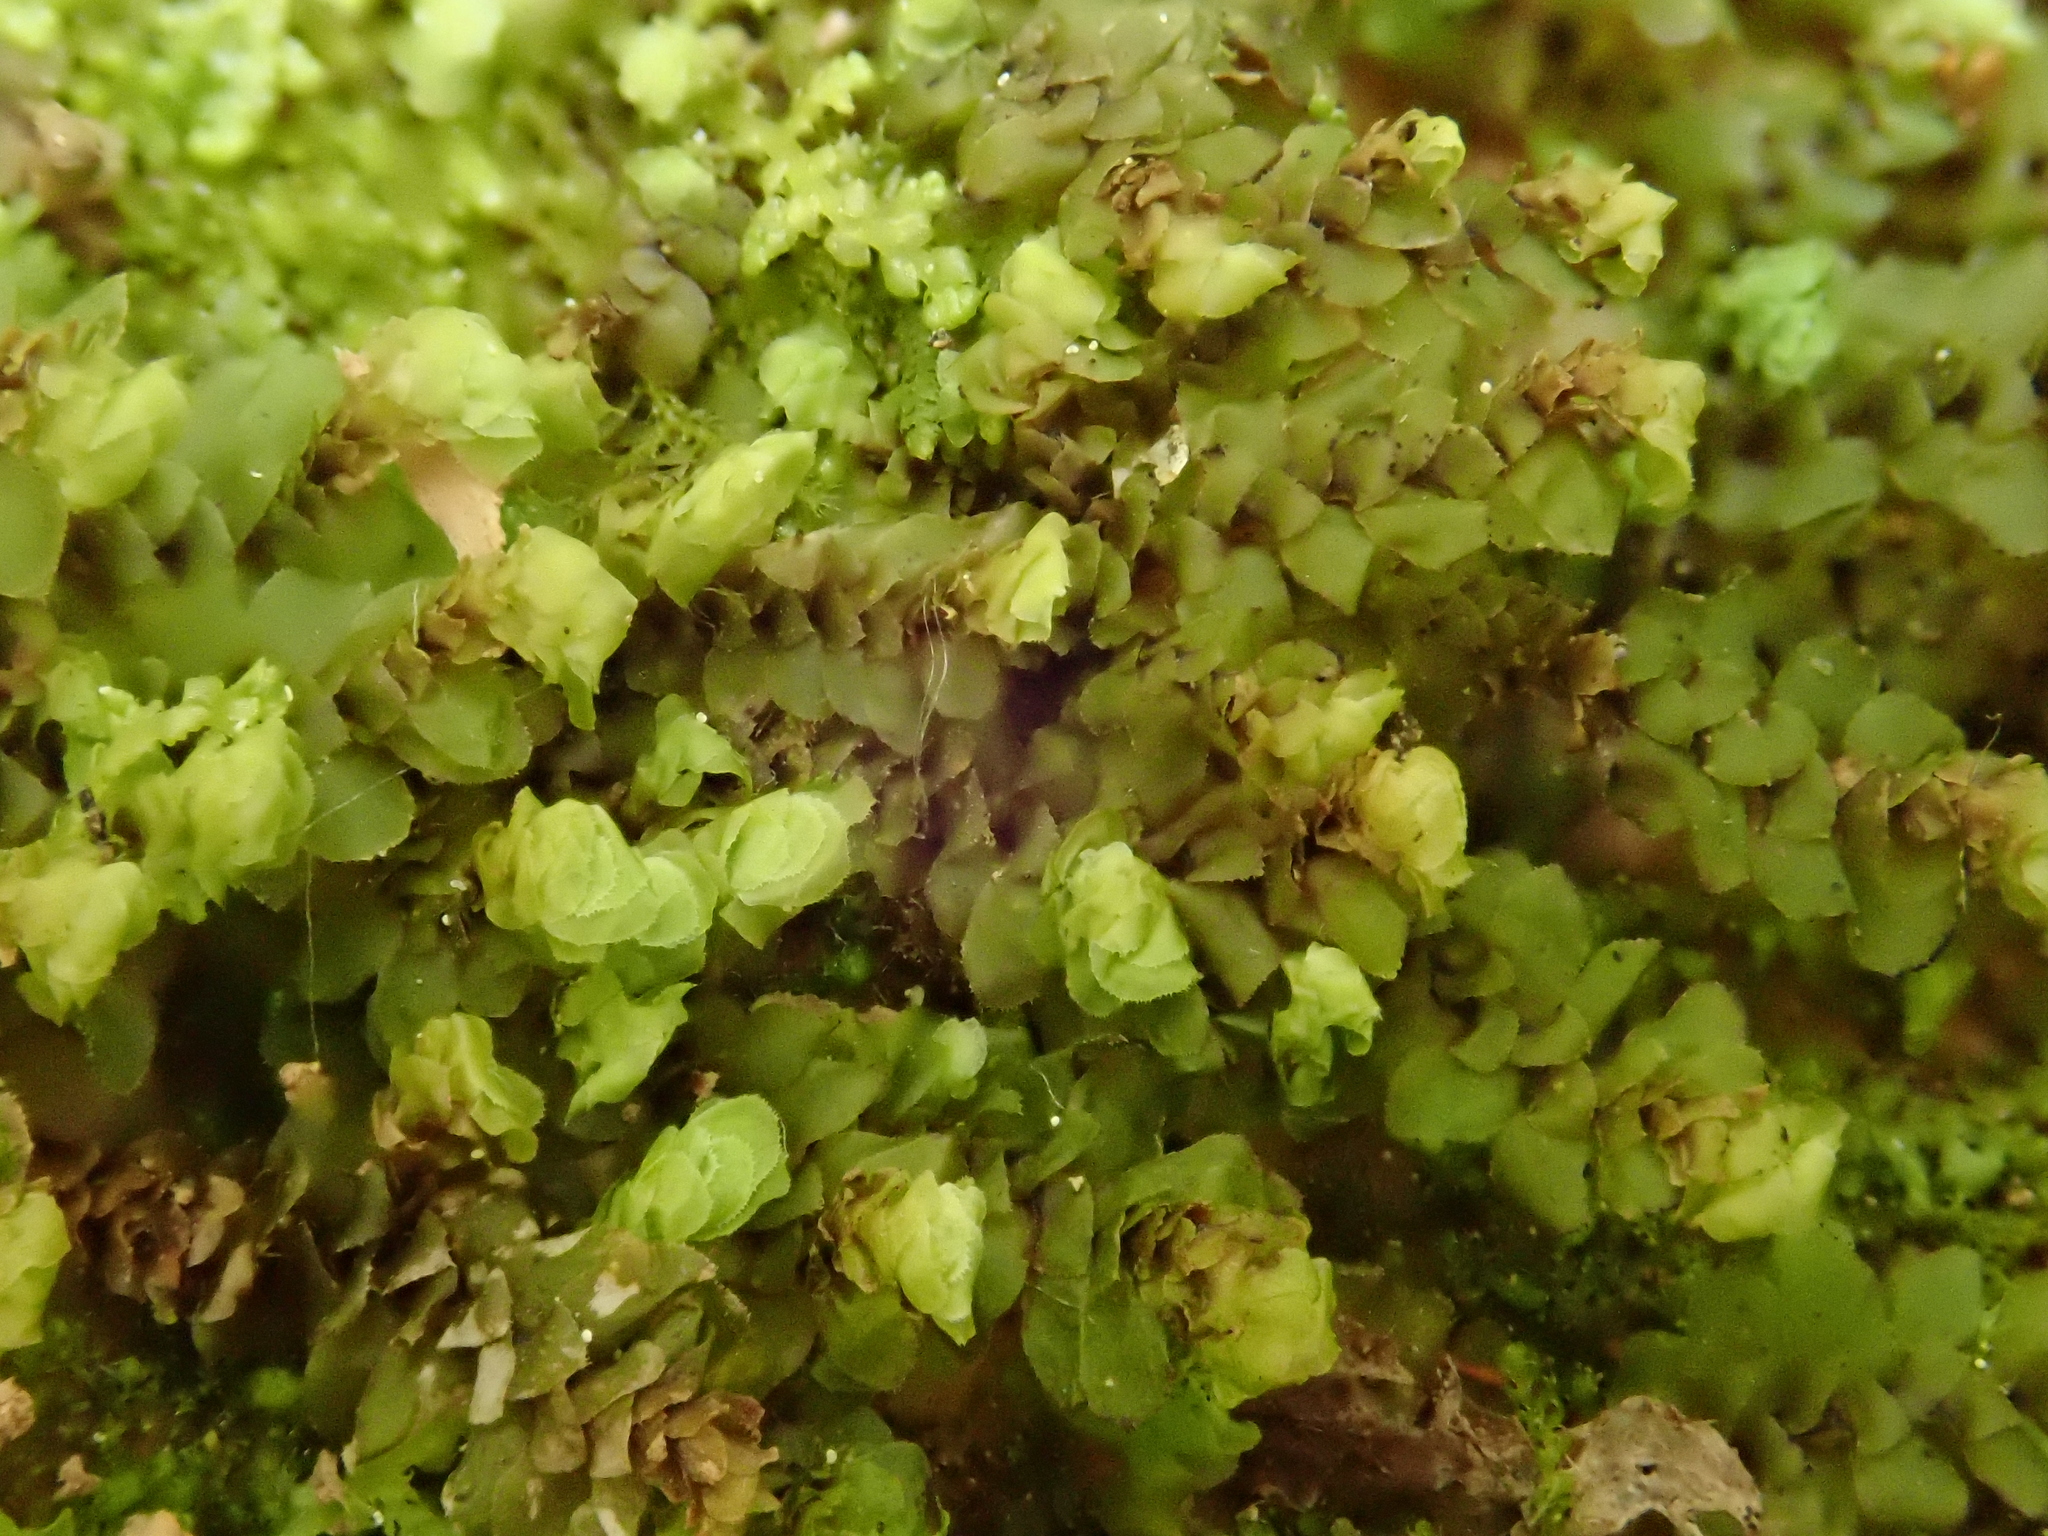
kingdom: Plantae
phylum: Marchantiophyta
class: Jungermanniopsida
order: Jungermanniales
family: Scapaniaceae
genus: Scapania
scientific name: Scapania nemorea
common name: Grove earwort
